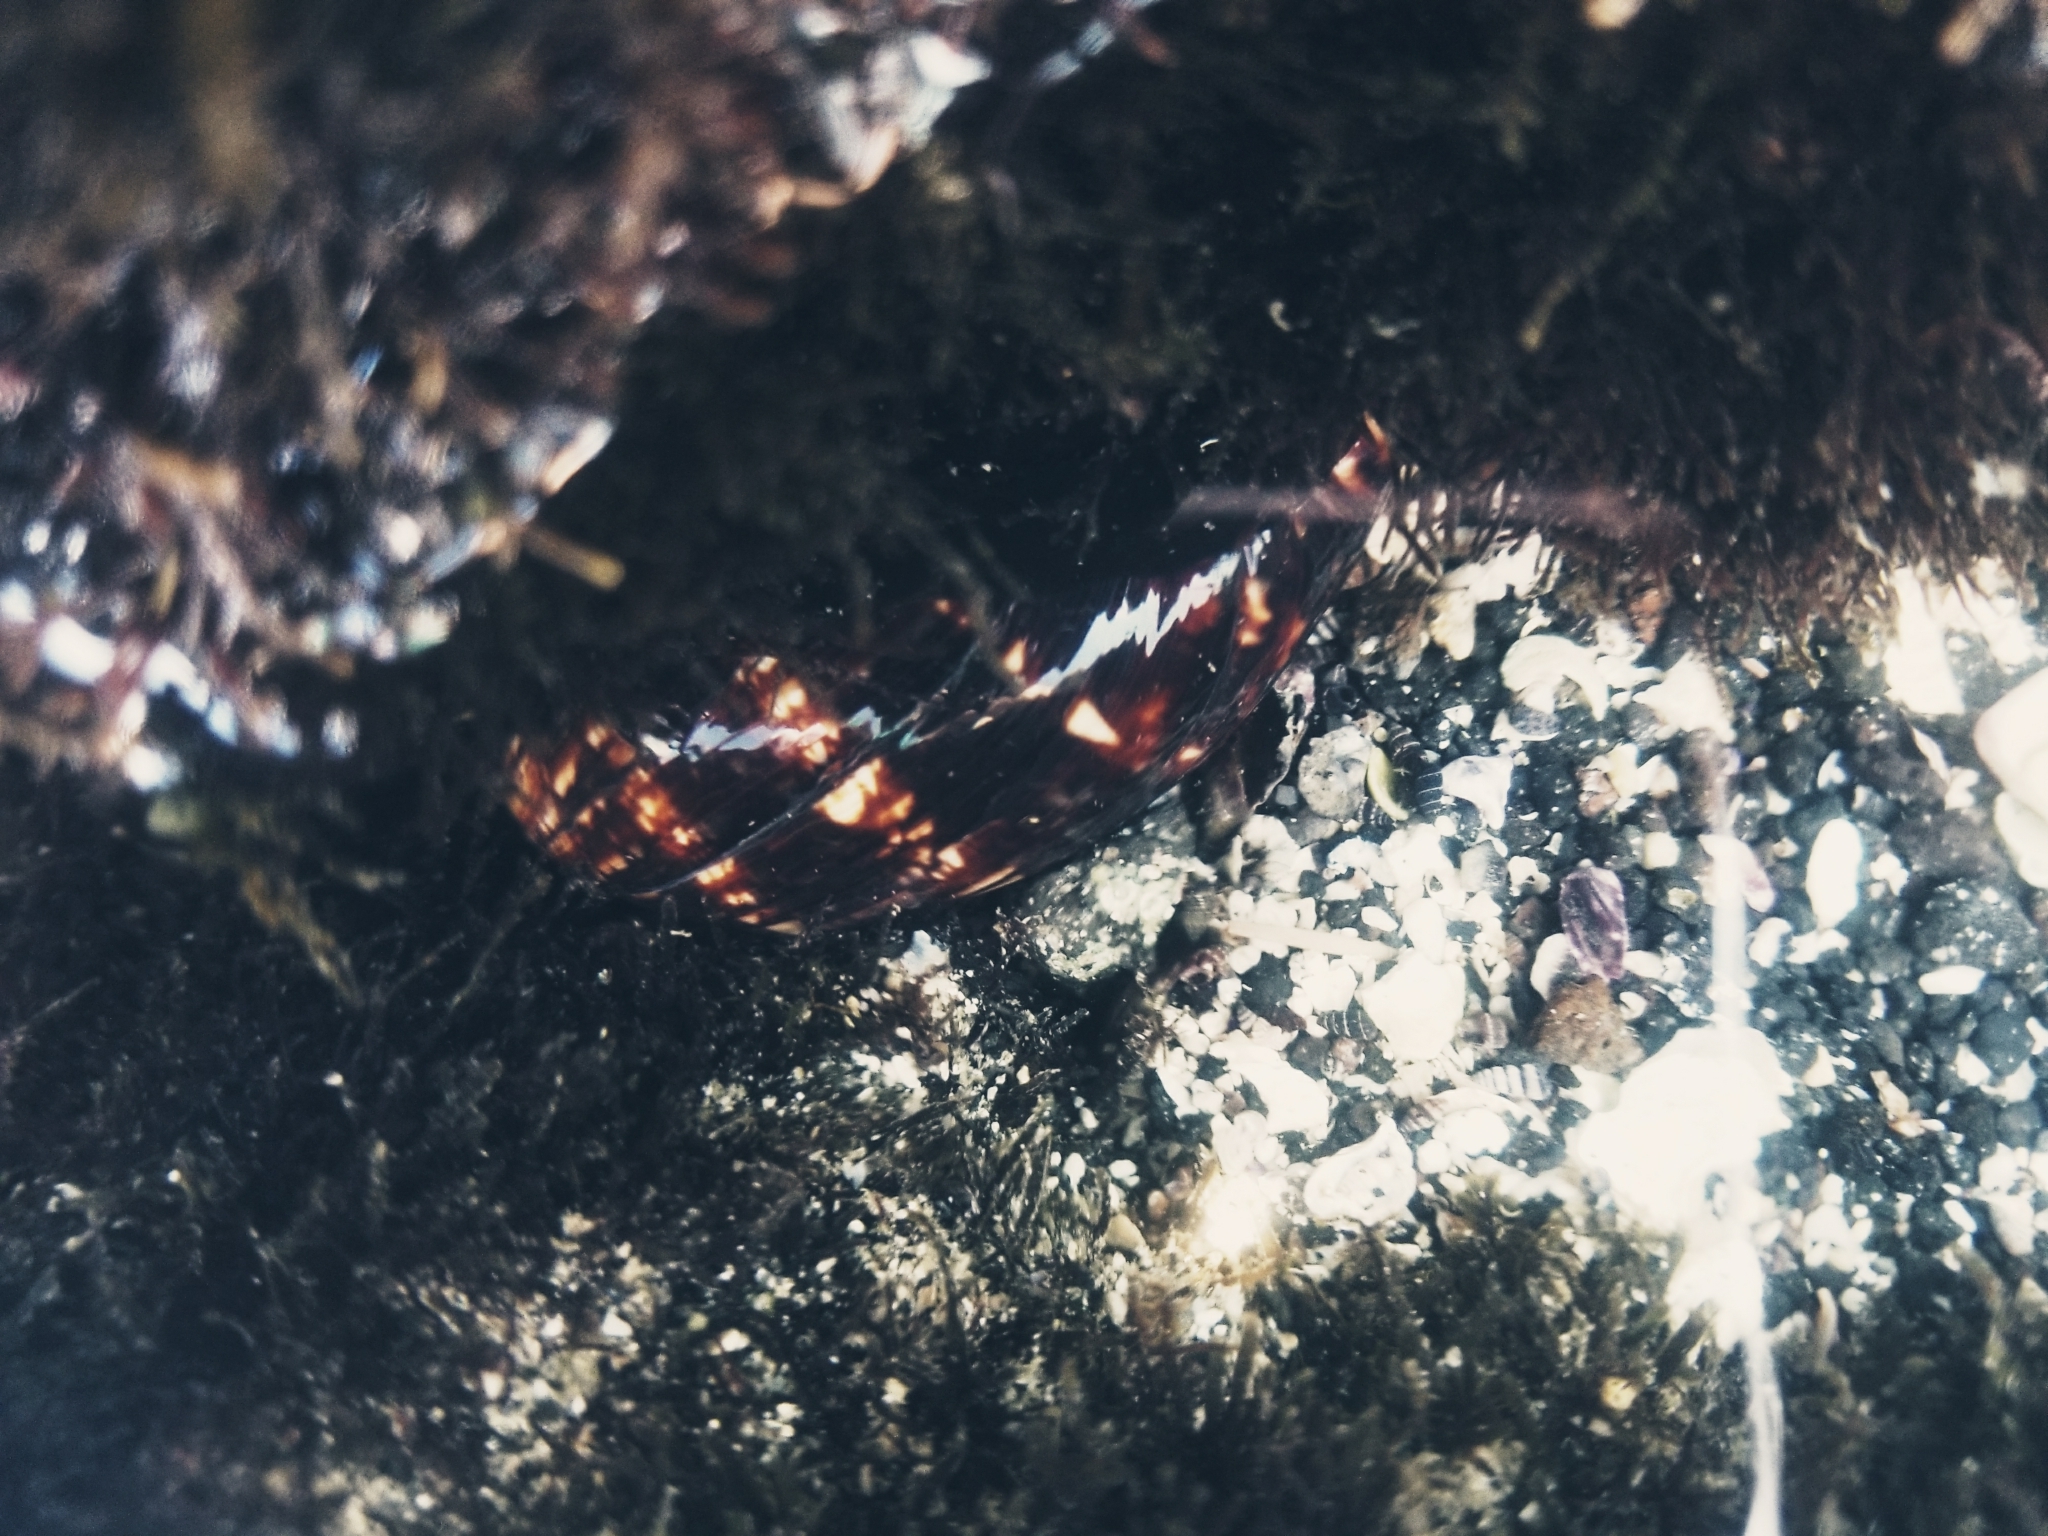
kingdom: Animalia
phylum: Mollusca
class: Gastropoda
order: Littorinimorpha
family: Cypraeidae
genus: Mauritia
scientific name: Mauritia mauritiana
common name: Hump-backed cowrie
